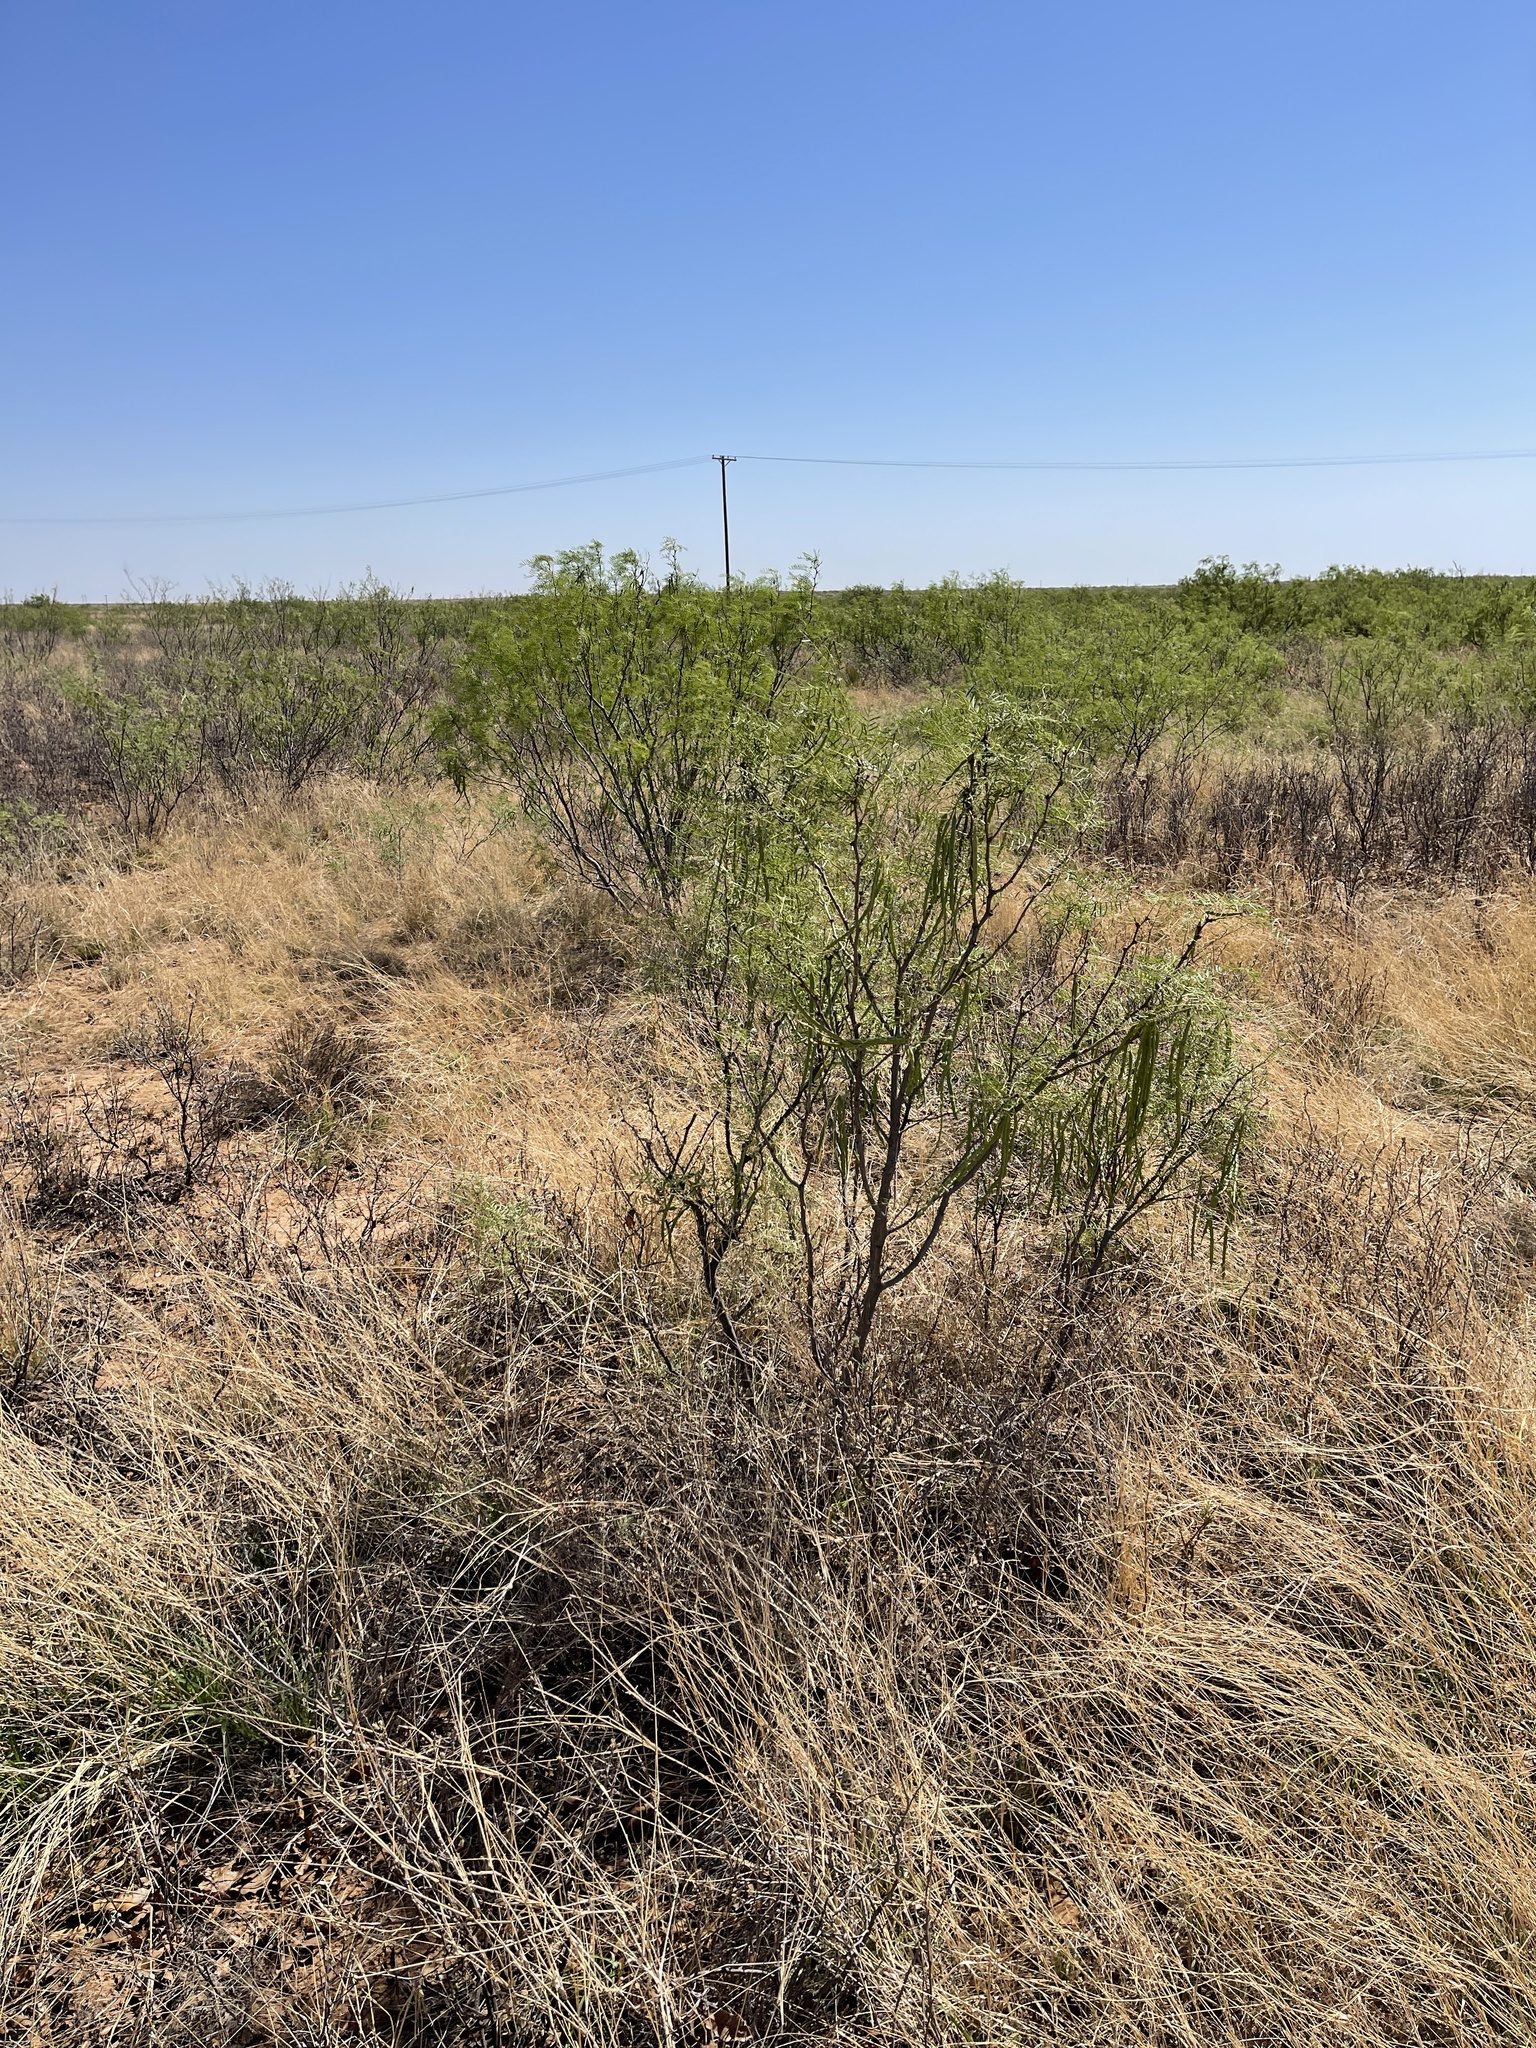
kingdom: Plantae
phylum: Tracheophyta
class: Magnoliopsida
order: Fabales
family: Fabaceae
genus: Prosopis
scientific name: Prosopis glandulosa
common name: Honey mesquite
